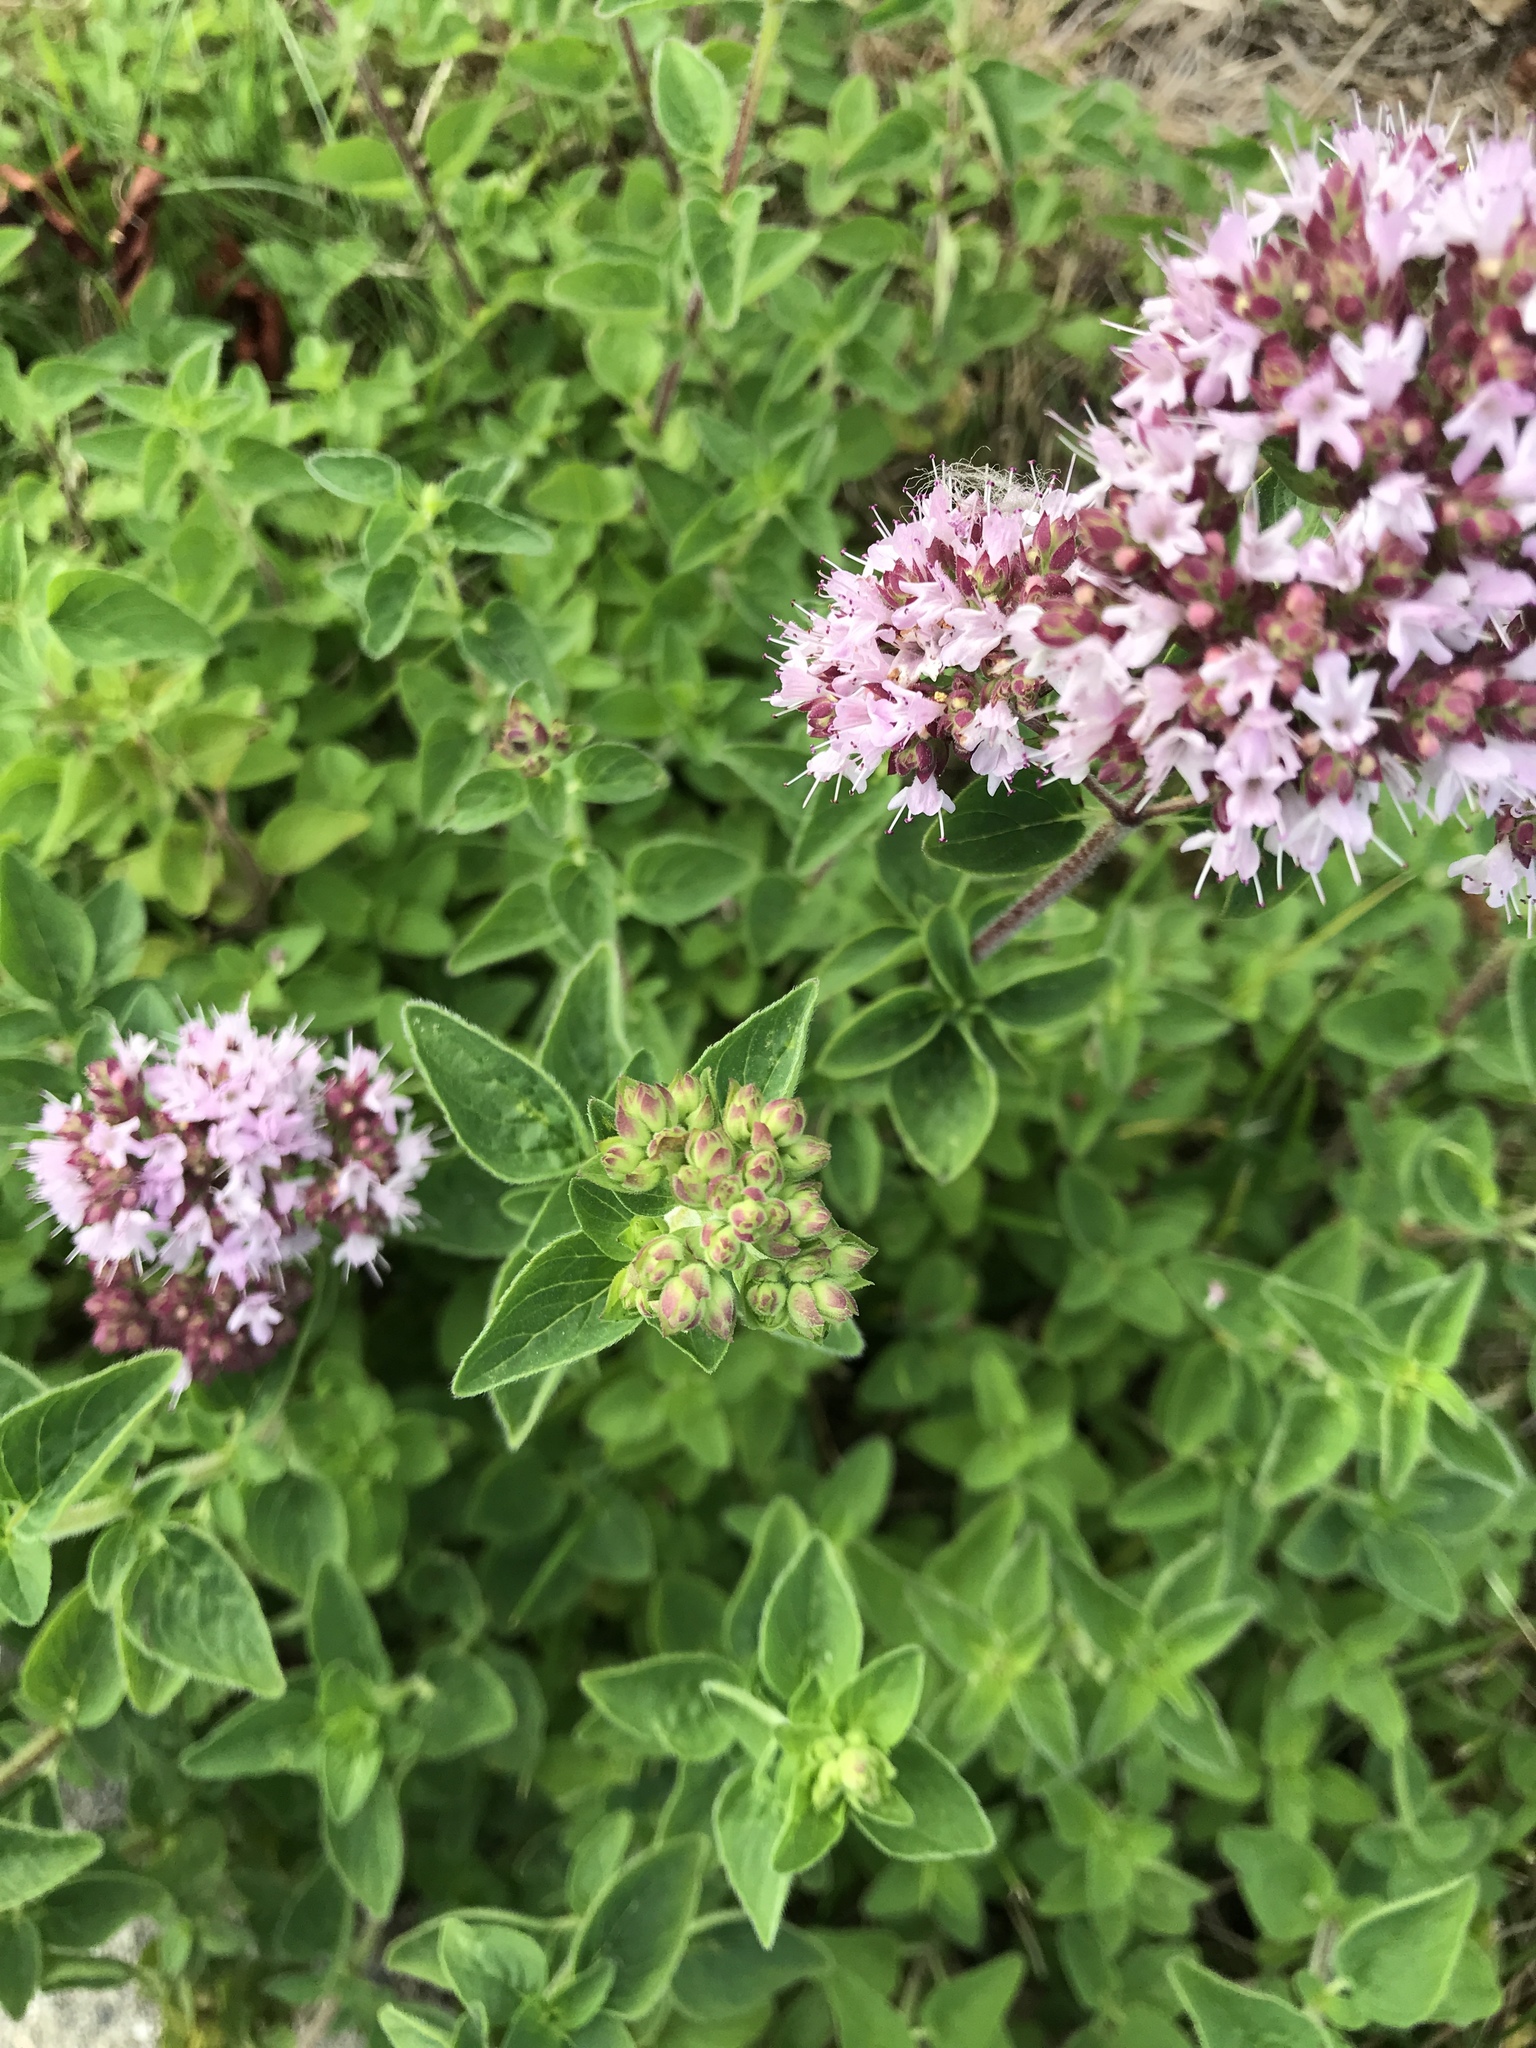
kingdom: Plantae
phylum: Tracheophyta
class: Magnoliopsida
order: Lamiales
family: Lamiaceae
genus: Origanum
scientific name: Origanum vulgare
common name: Wild marjoram
